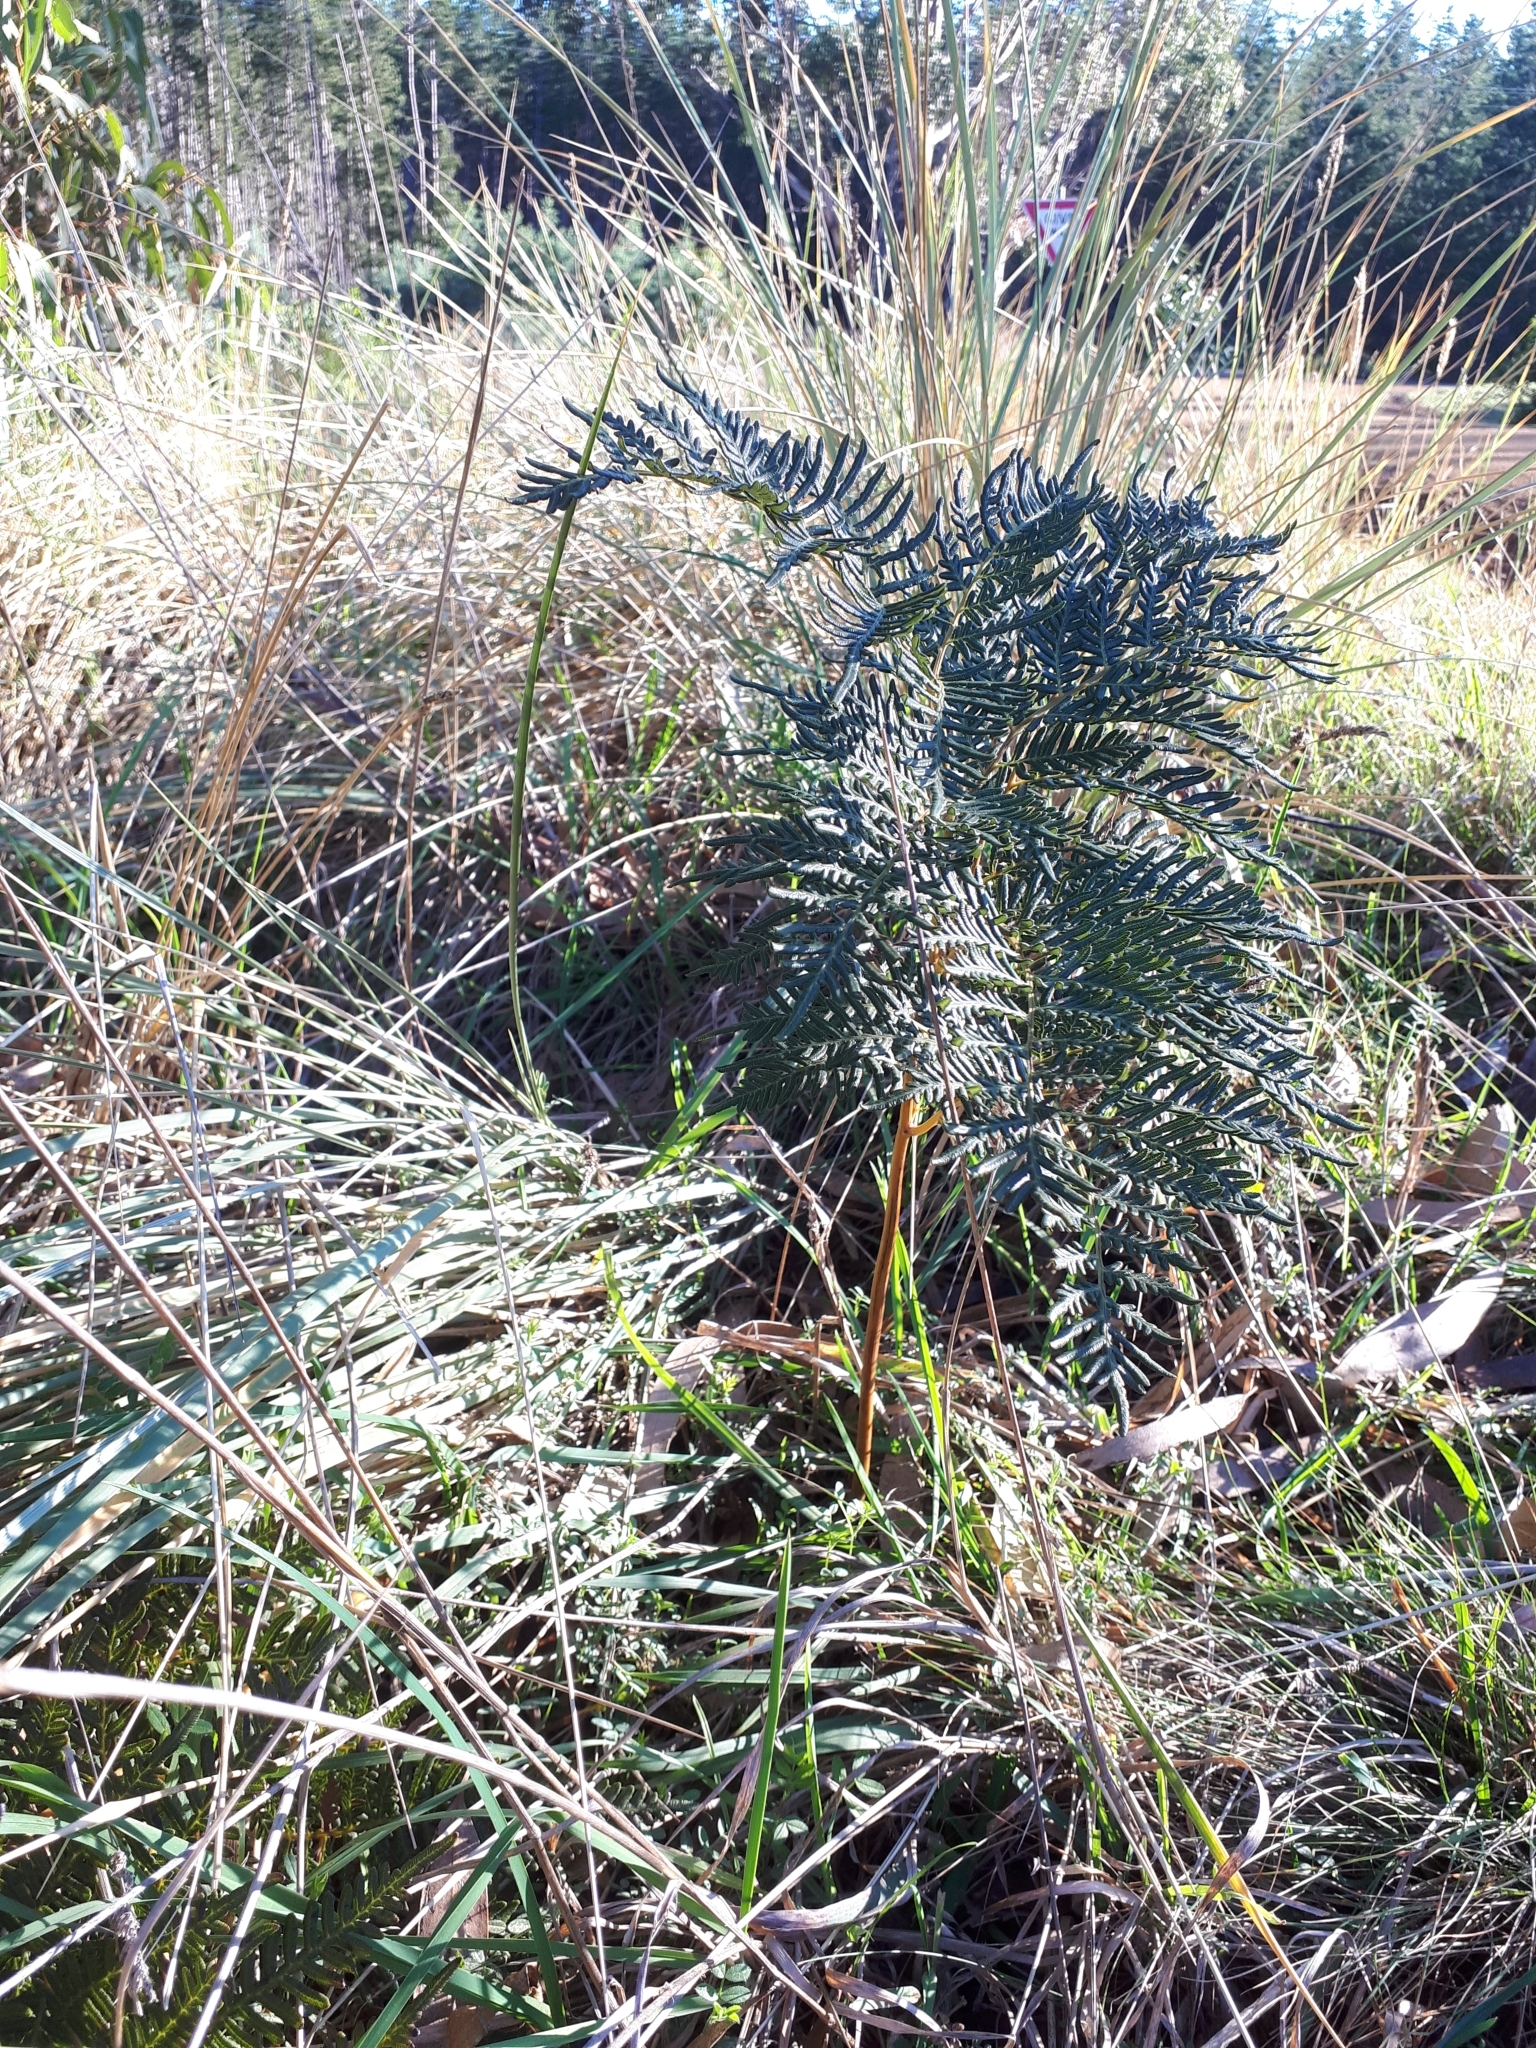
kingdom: Plantae
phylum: Tracheophyta
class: Polypodiopsida
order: Polypodiales
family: Dennstaedtiaceae
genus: Pteridium
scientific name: Pteridium esculentum
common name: Bracken fern
